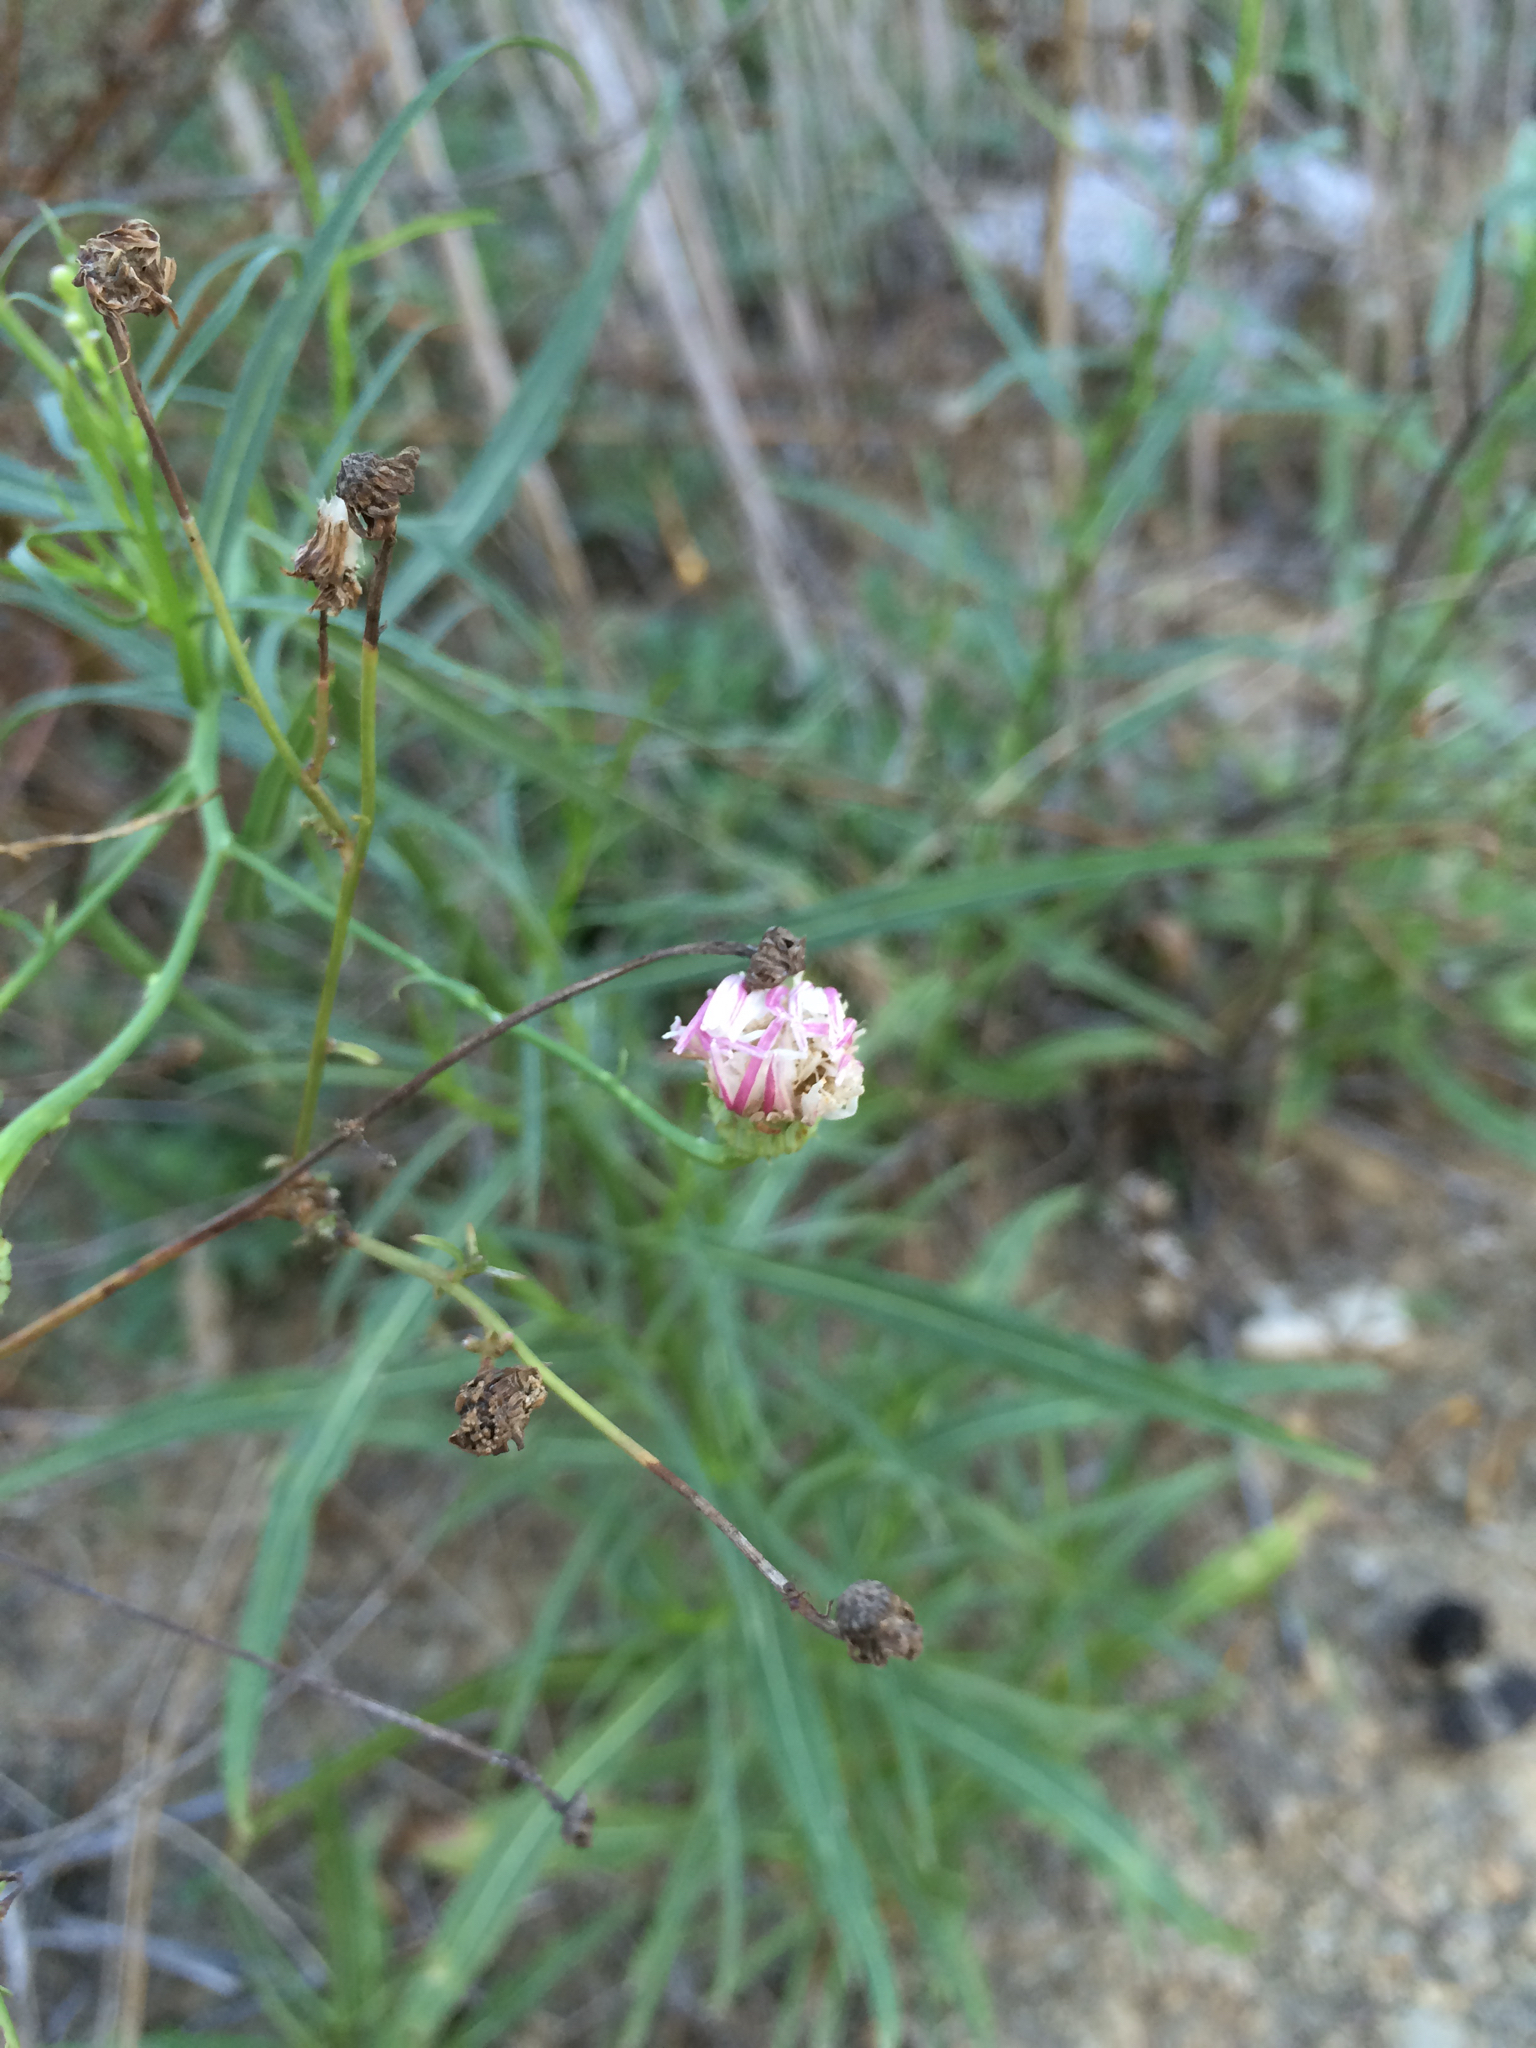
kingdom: Plantae
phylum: Tracheophyta
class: Magnoliopsida
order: Asterales
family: Asteraceae
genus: Malacothrix
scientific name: Malacothrix saxatilis
